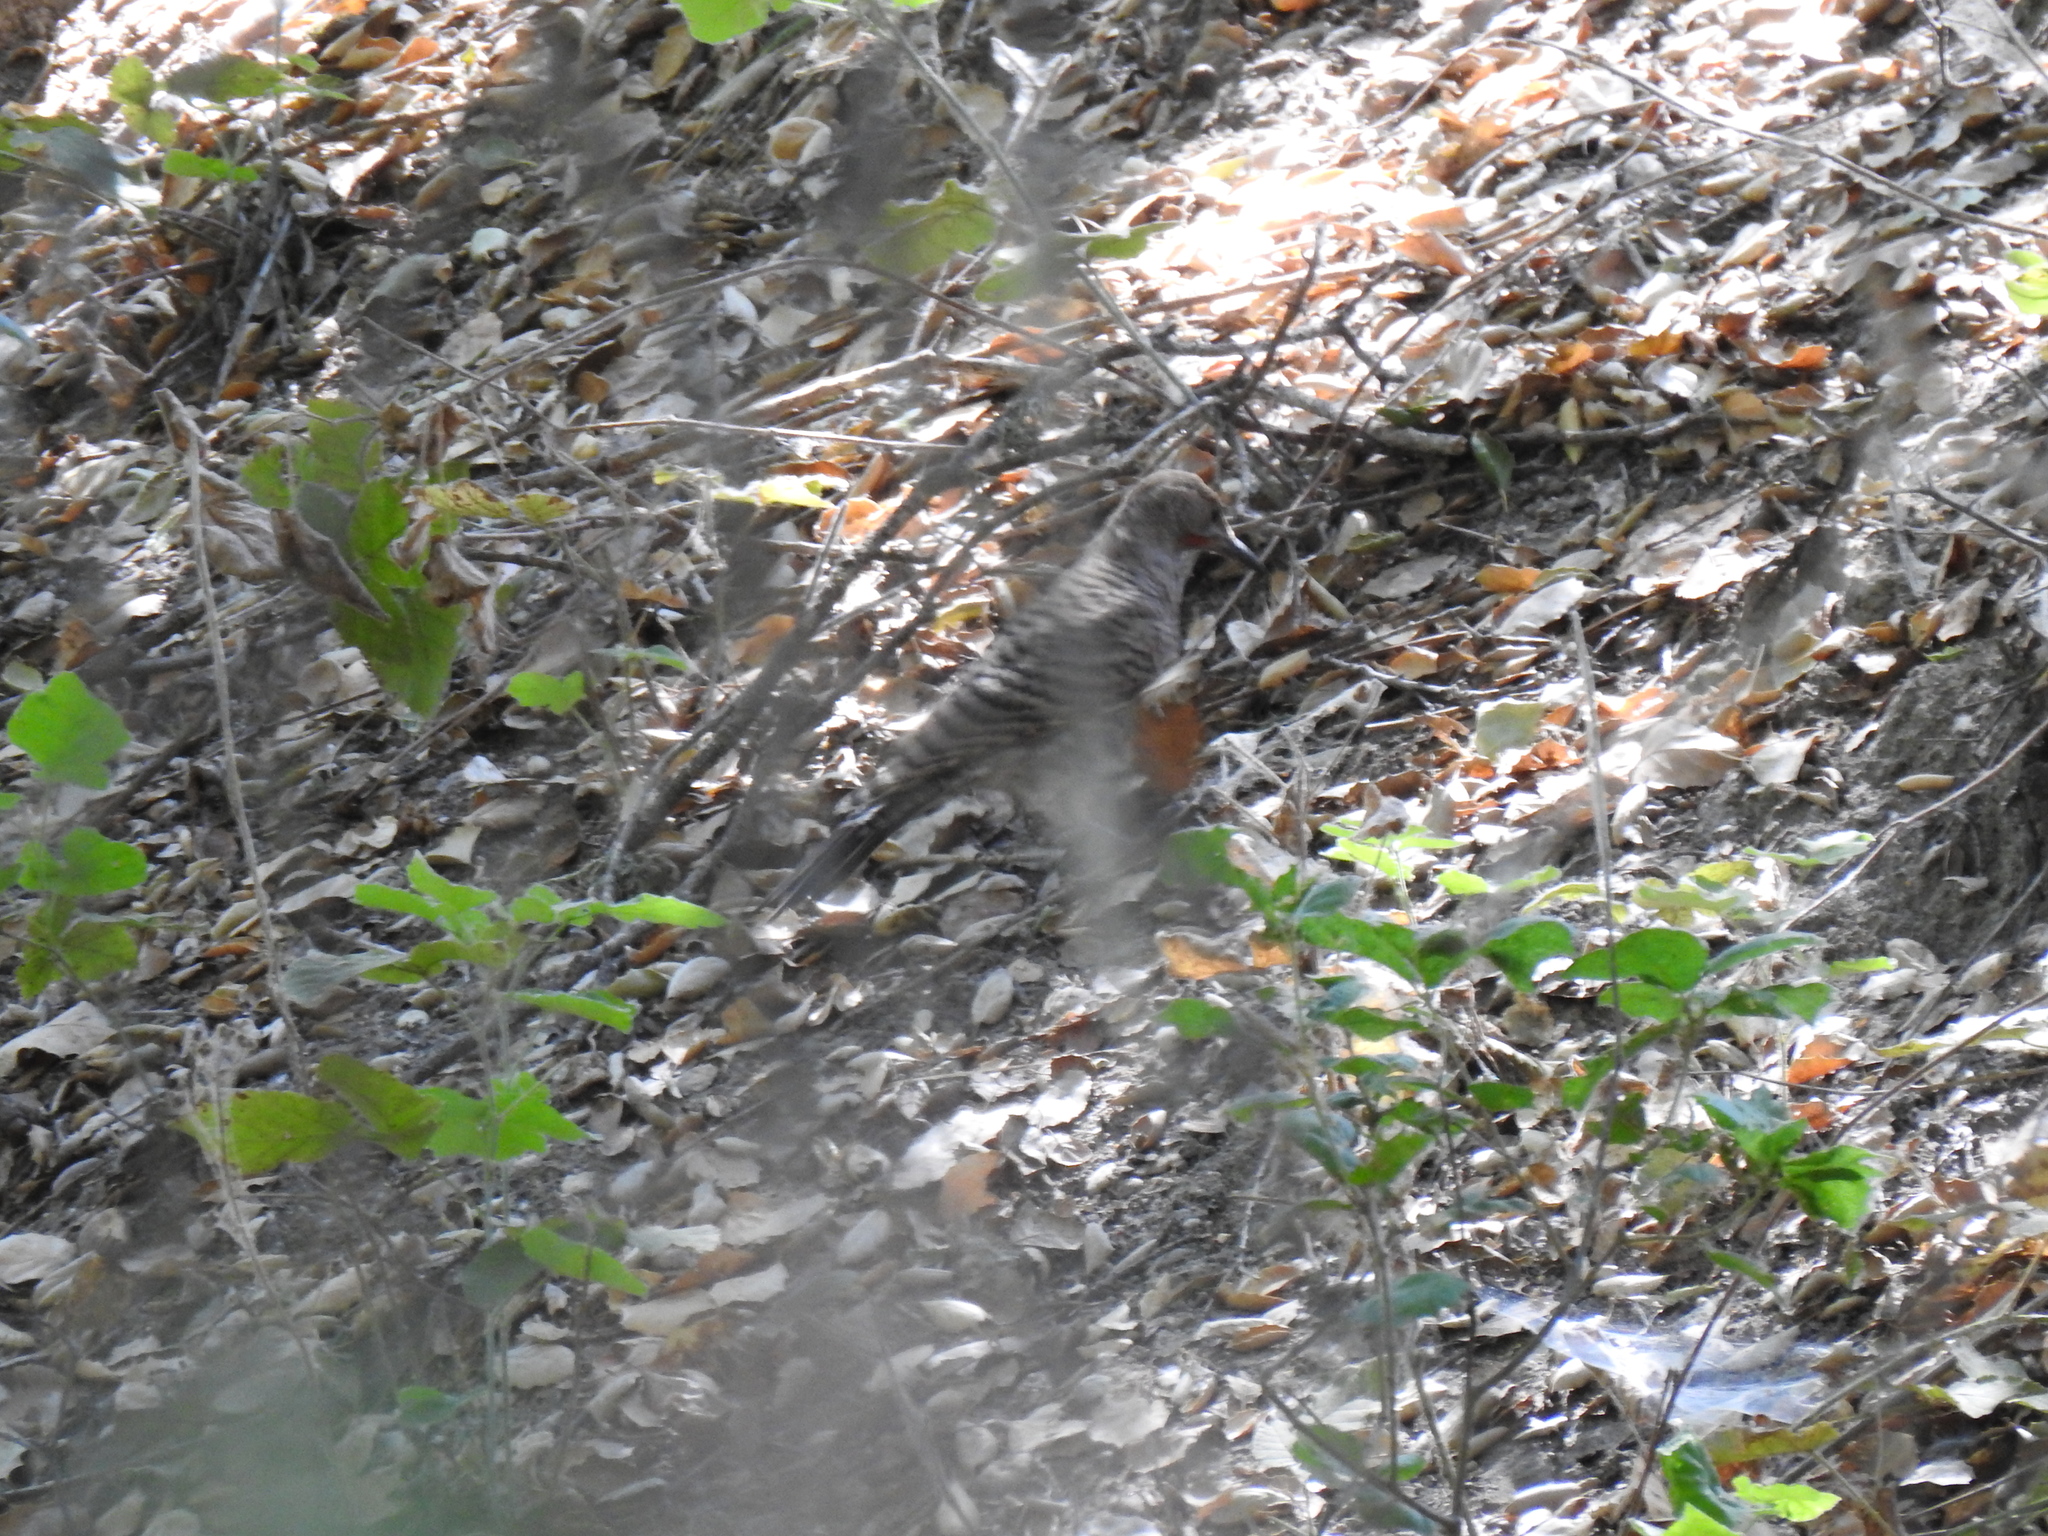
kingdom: Animalia
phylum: Chordata
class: Aves
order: Piciformes
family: Picidae
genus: Colaptes
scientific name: Colaptes auratus
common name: Northern flicker
